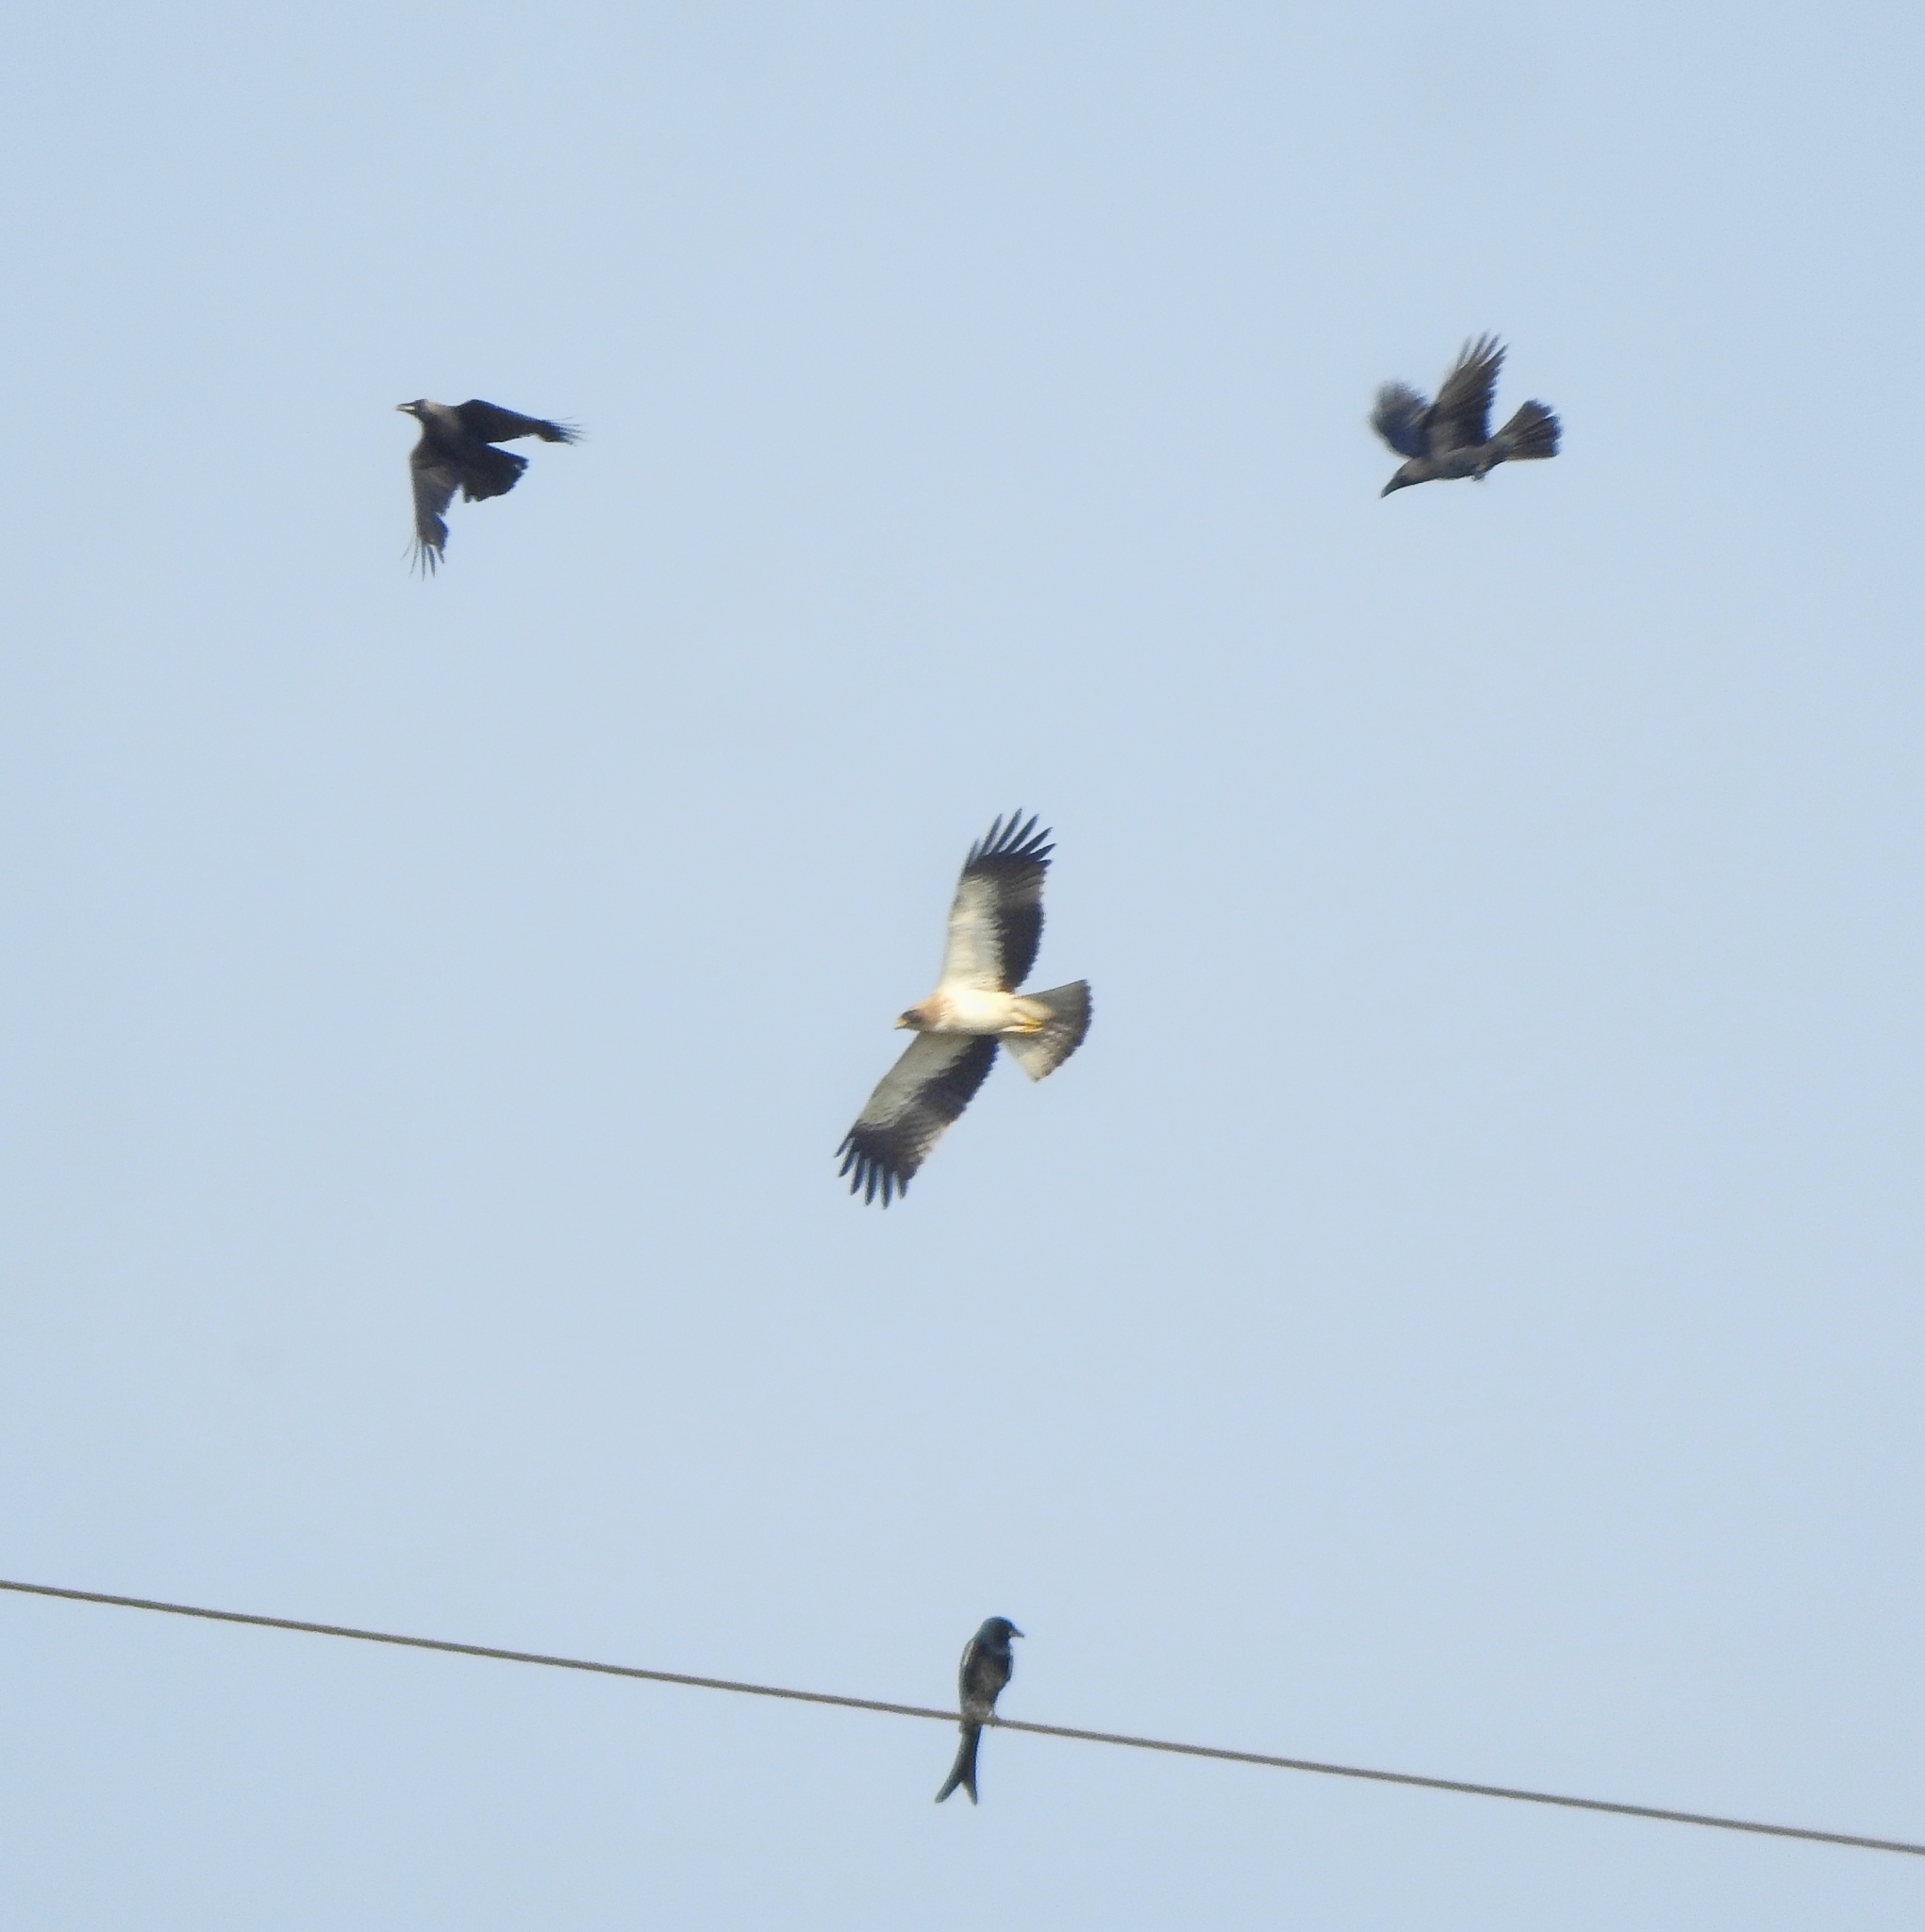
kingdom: Animalia
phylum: Chordata
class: Aves
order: Passeriformes
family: Dicruridae
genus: Dicrurus
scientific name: Dicrurus macrocercus
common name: Black drongo
